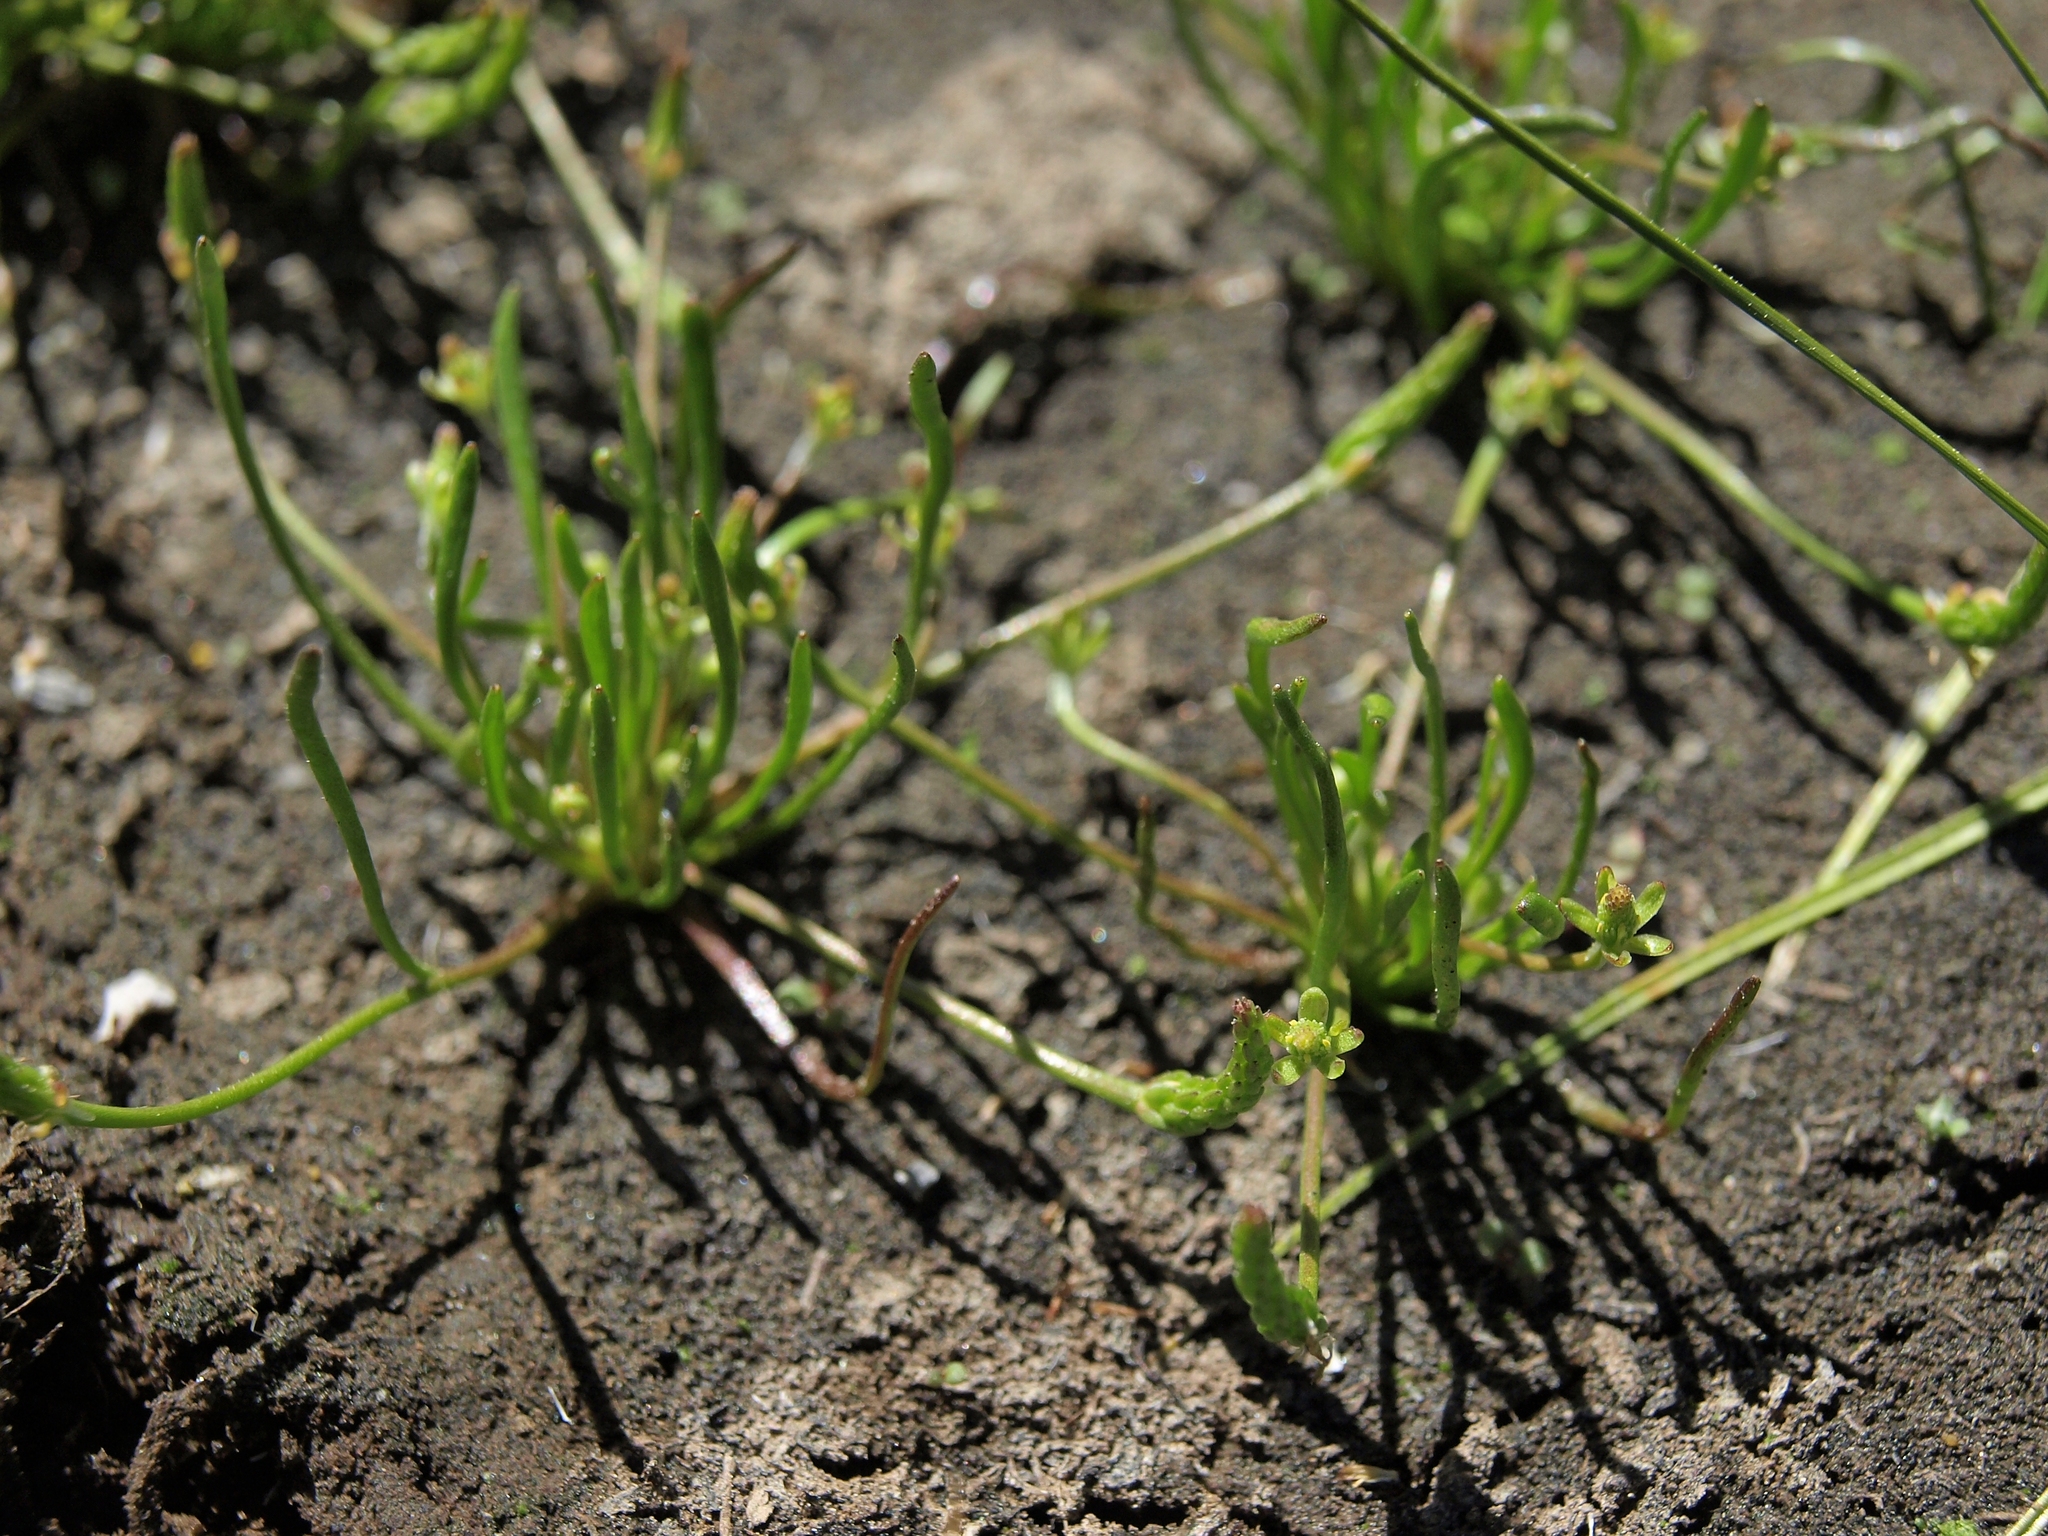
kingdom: Plantae
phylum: Tracheophyta
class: Magnoliopsida
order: Ranunculales
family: Ranunculaceae
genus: Myosurus
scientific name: Myosurus minimus
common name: Mousetail
